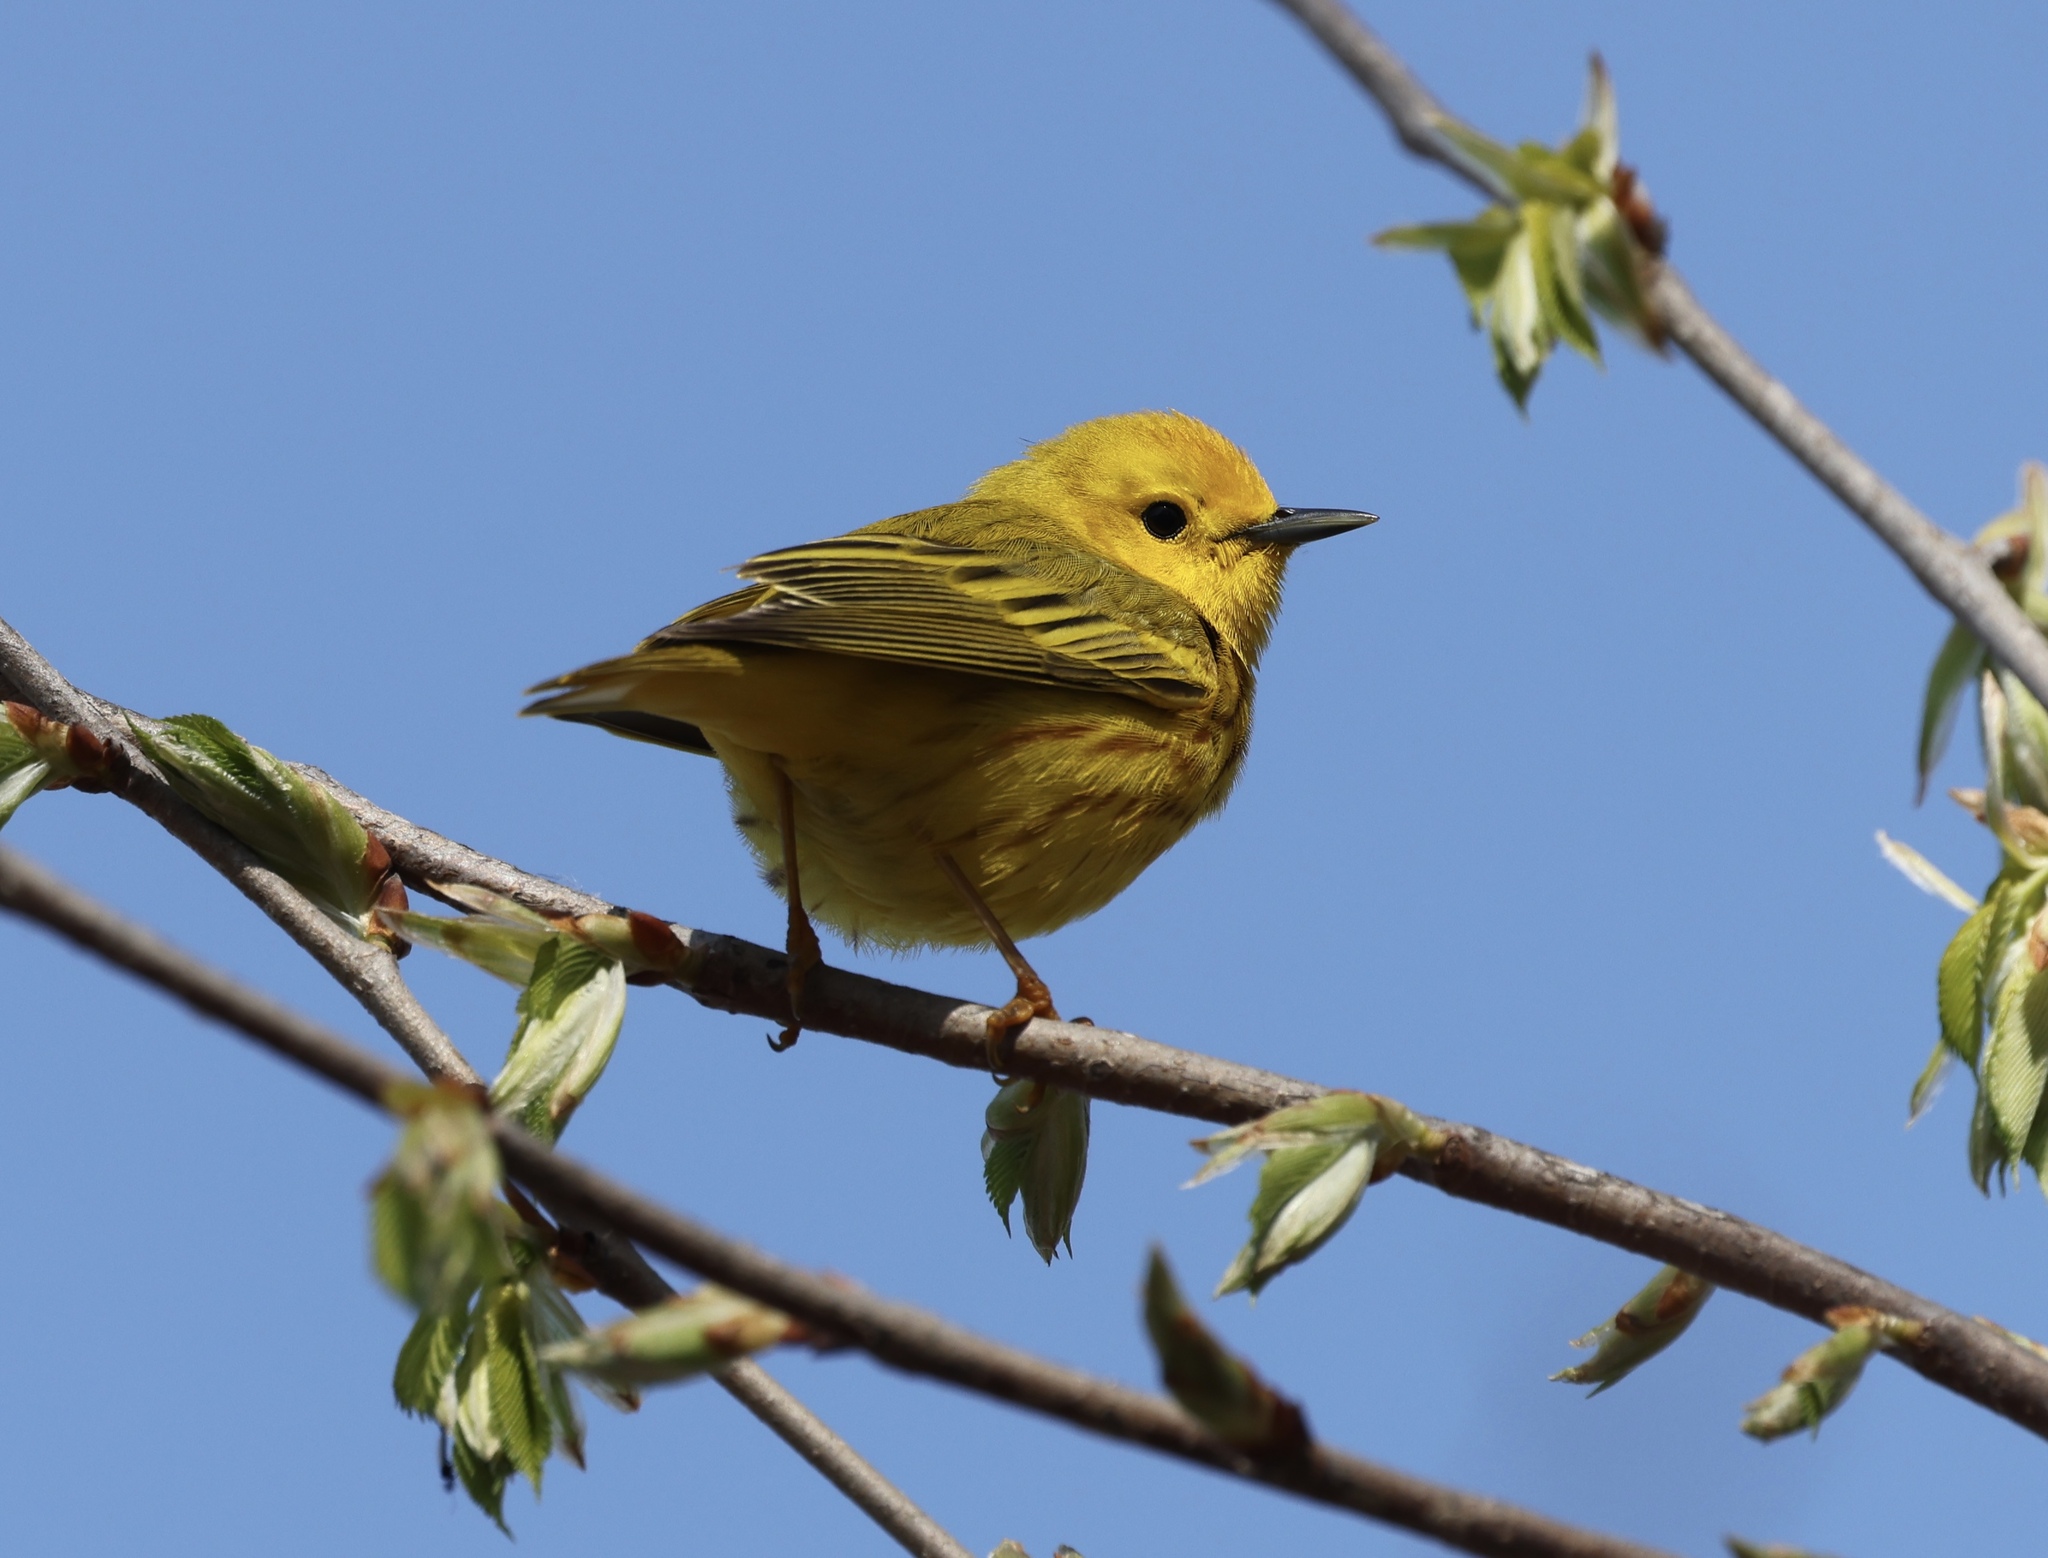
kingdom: Animalia
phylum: Chordata
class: Aves
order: Passeriformes
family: Parulidae
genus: Setophaga
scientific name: Setophaga petechia
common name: Yellow warbler
